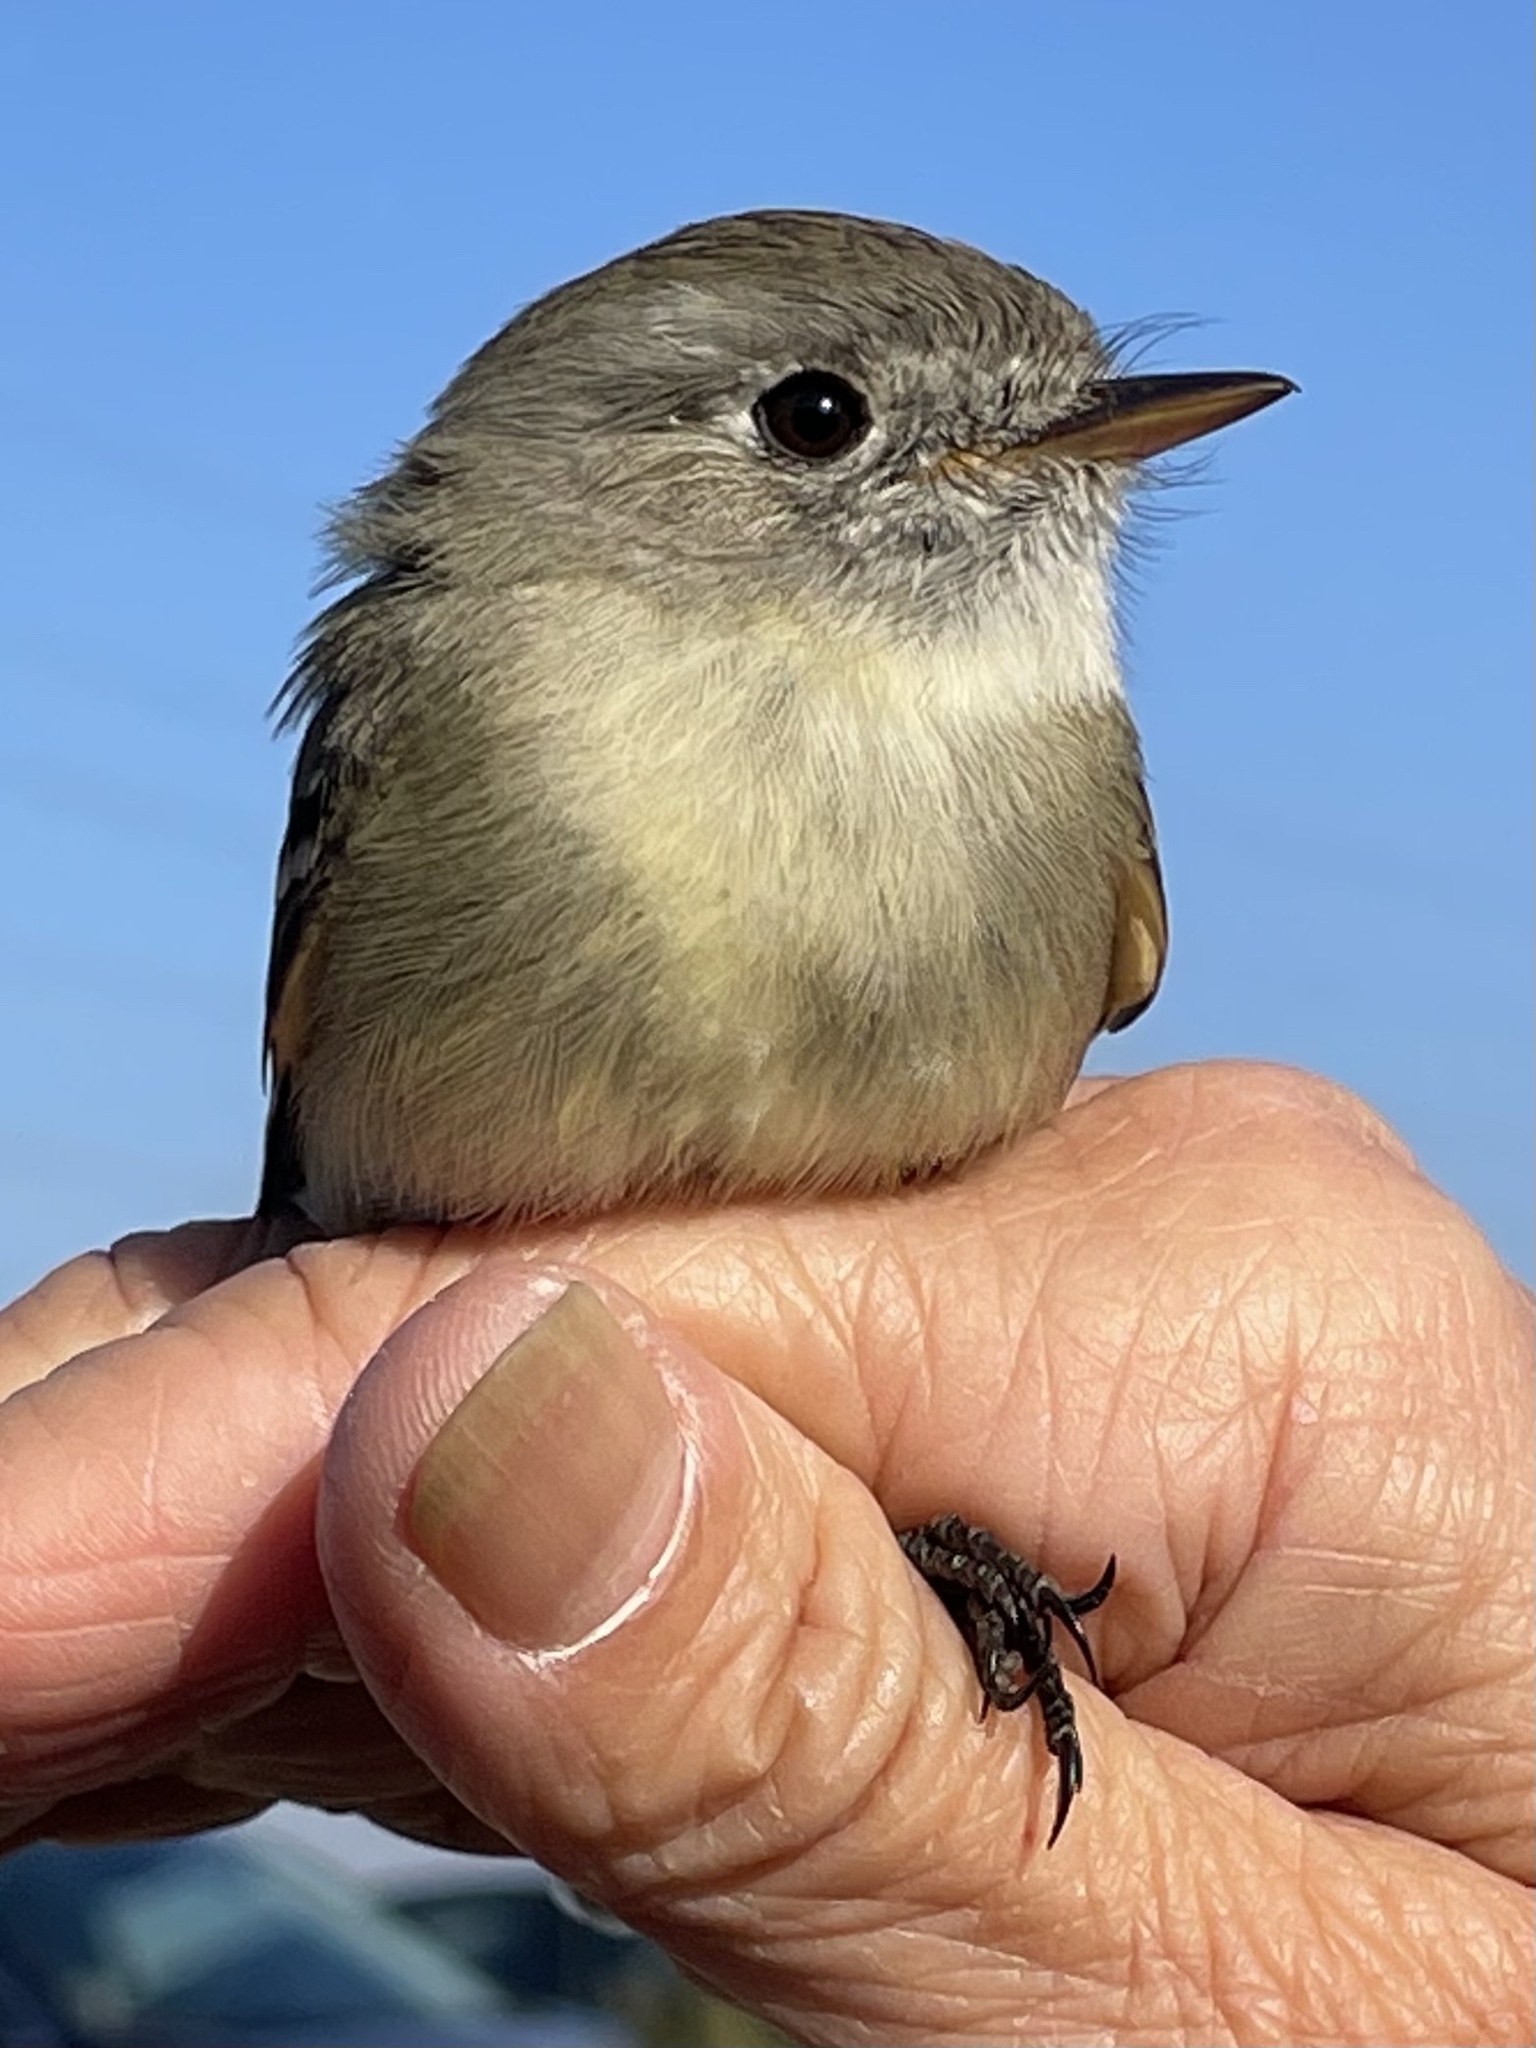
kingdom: Animalia
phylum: Chordata
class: Aves
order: Passeriformes
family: Tyrannidae
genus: Empidonax
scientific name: Empidonax oberholseri
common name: Dusky flycatcher
